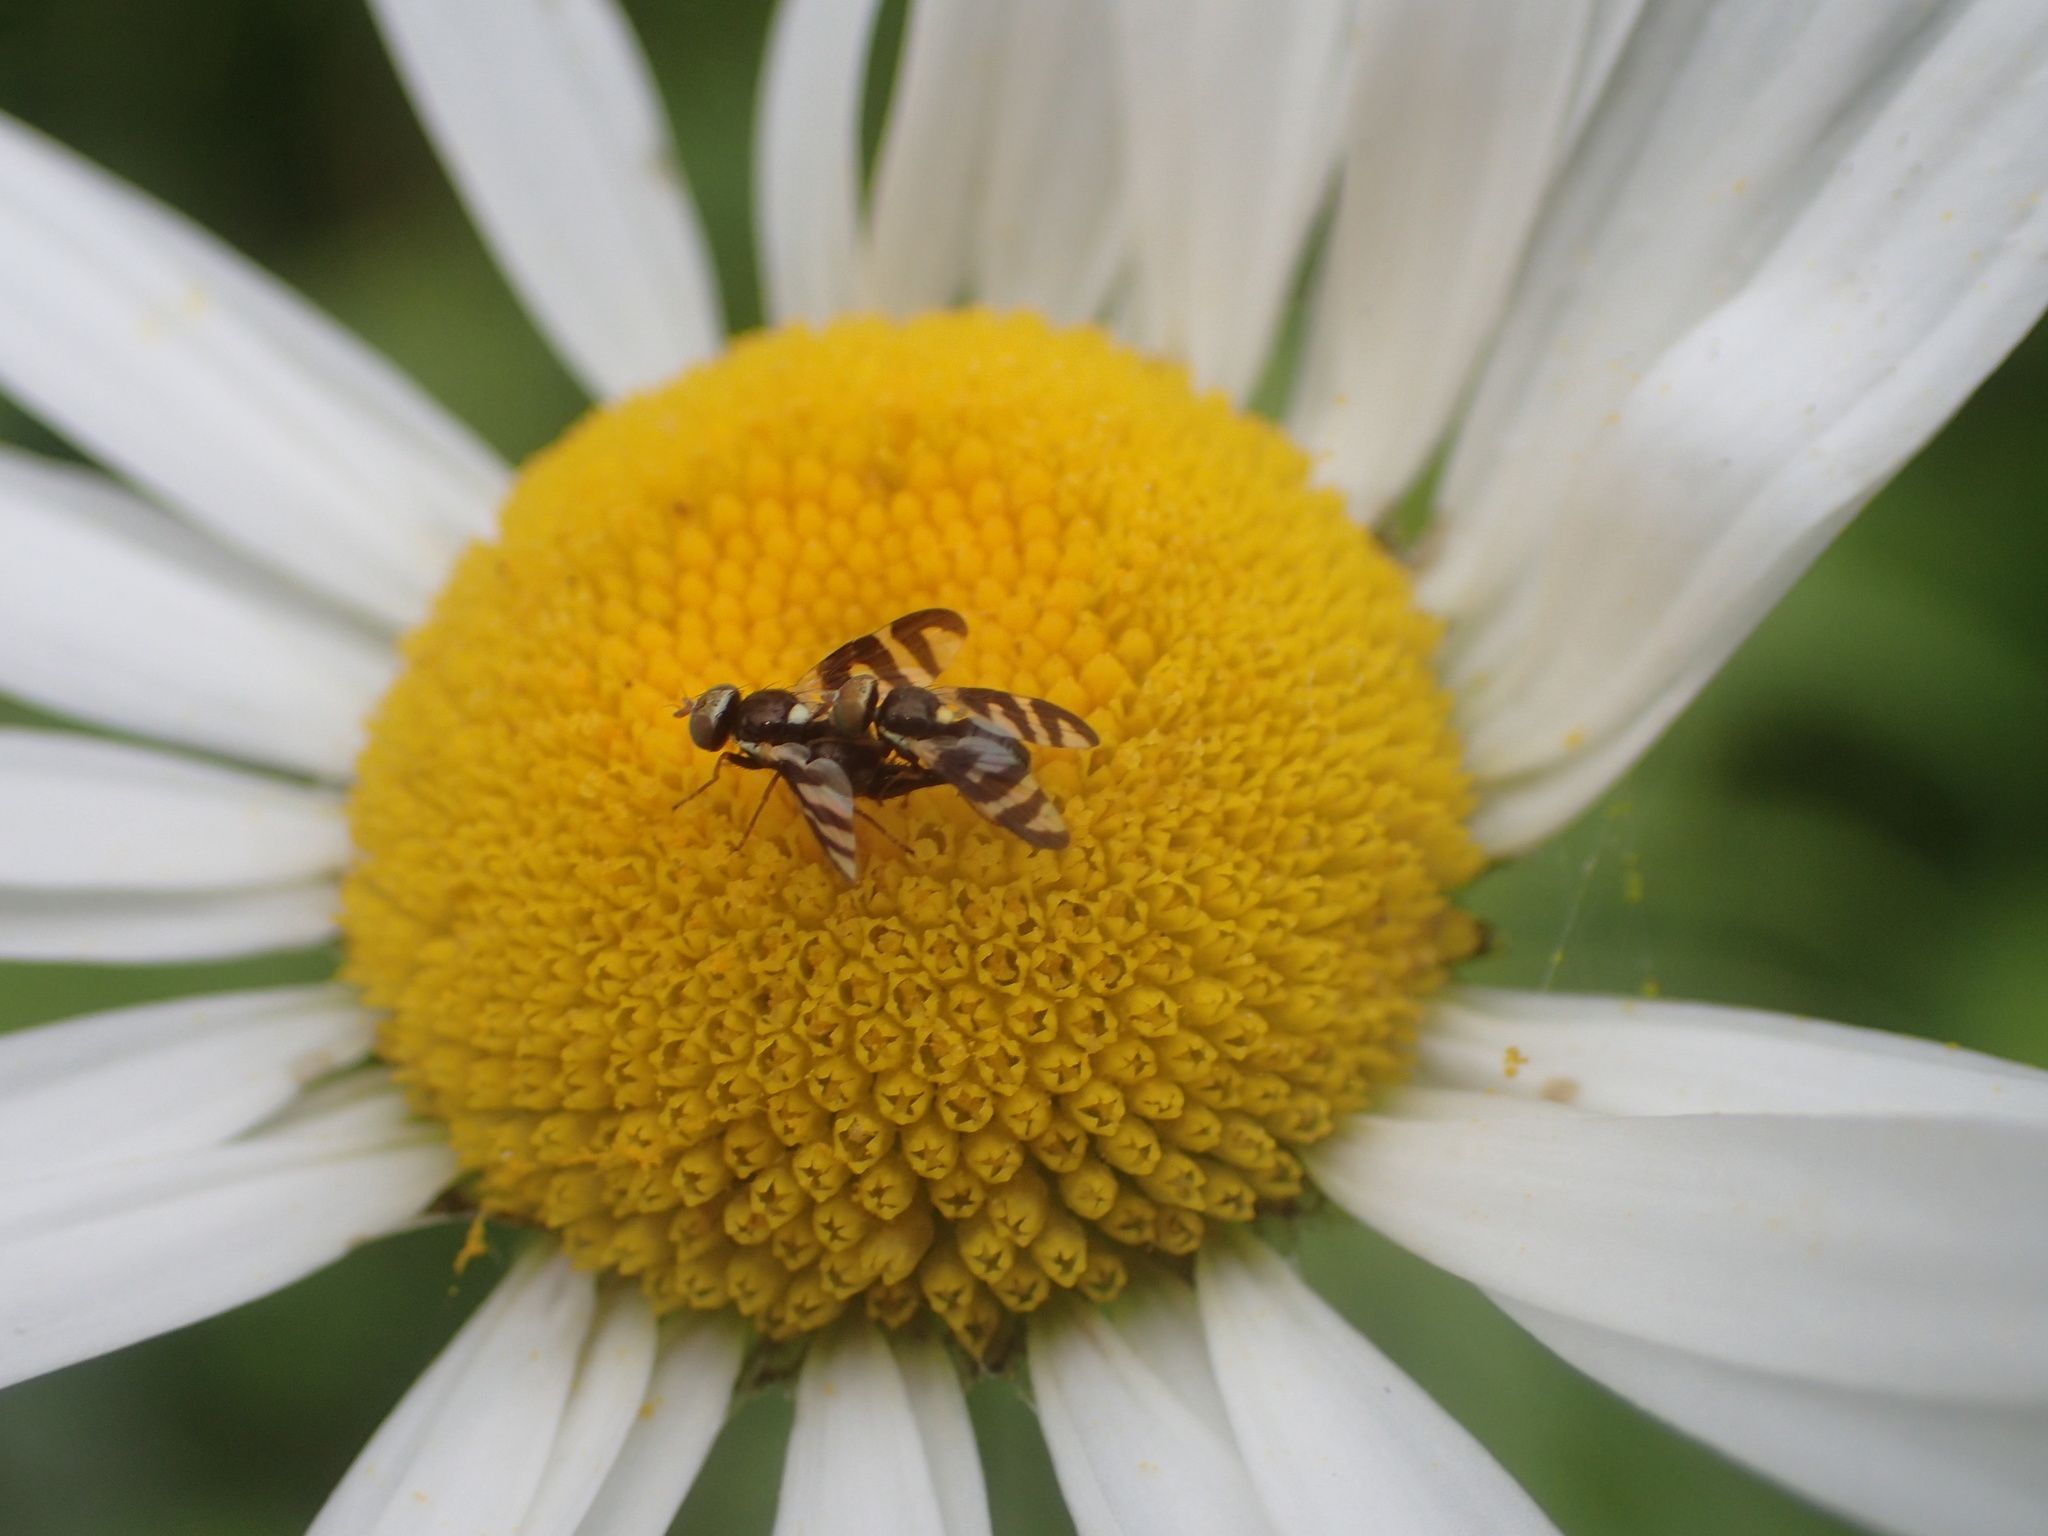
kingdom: Animalia
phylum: Arthropoda
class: Insecta
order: Diptera
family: Tephritidae
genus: Urophora
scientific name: Urophora quadrifasciata
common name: Knapweed seedhead fly
